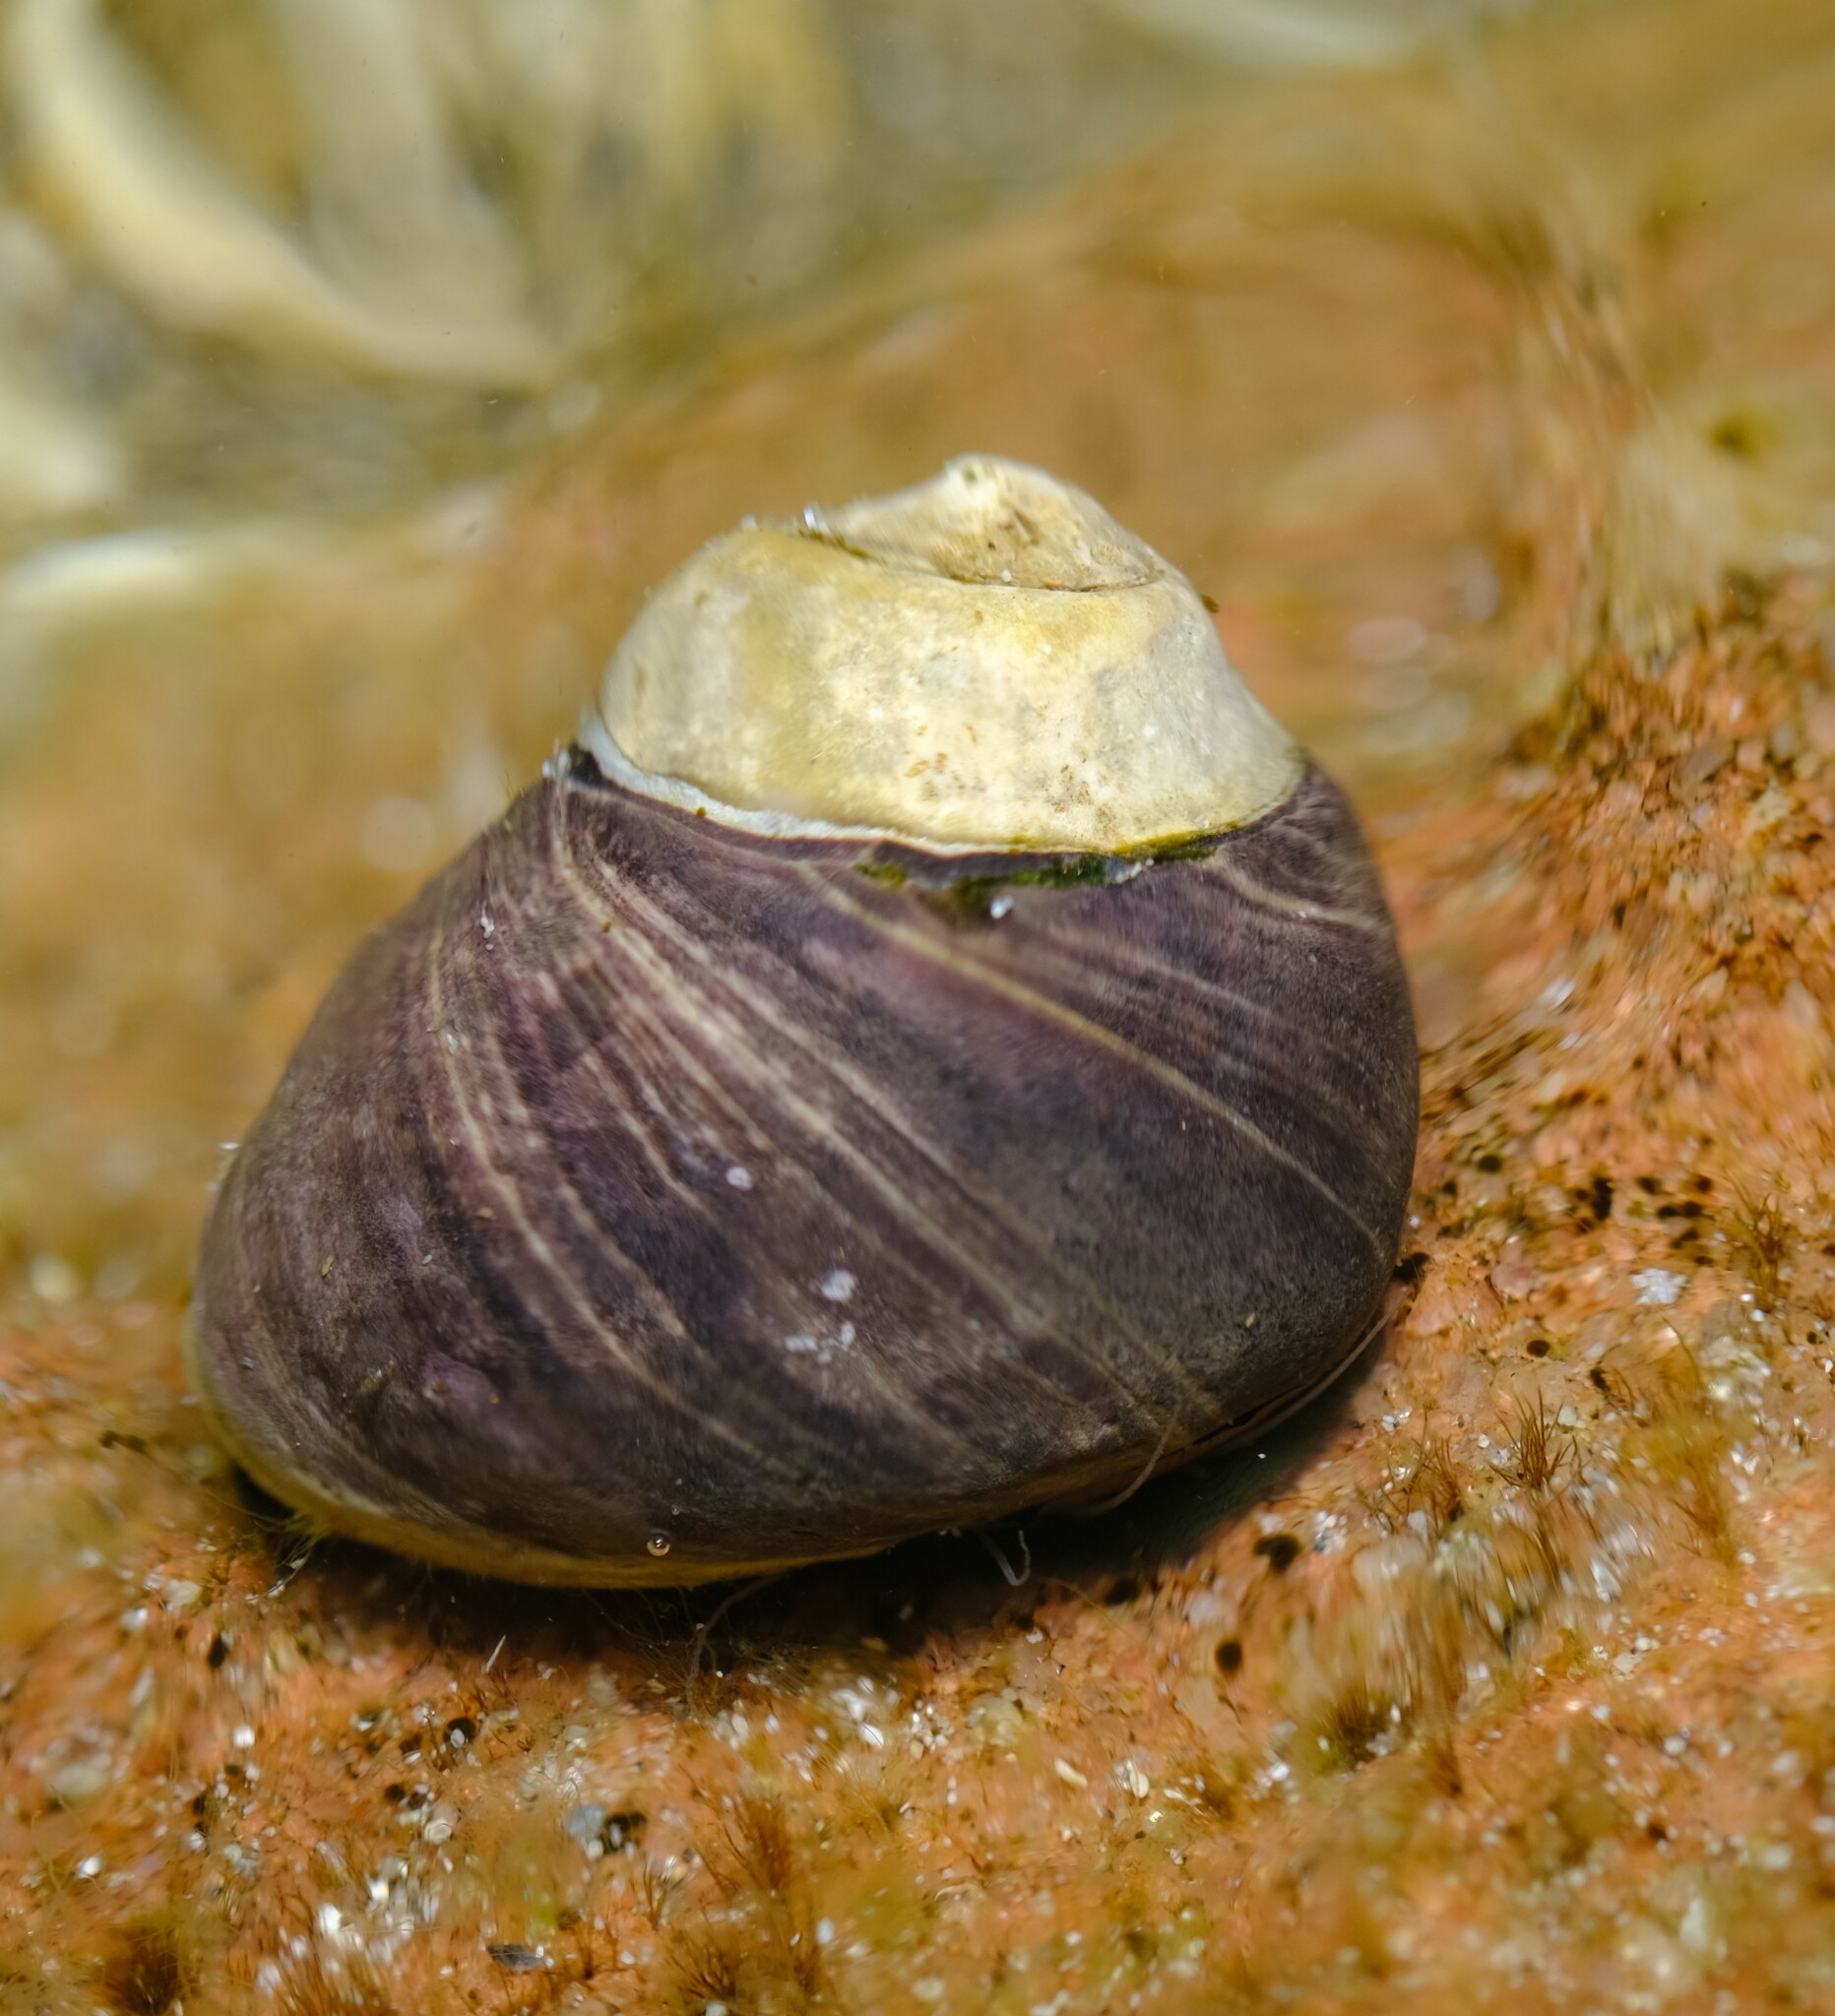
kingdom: Animalia
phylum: Mollusca
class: Gastropoda
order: Trochida
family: Trochidae
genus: Austrocochlea
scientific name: Austrocochlea rudis
